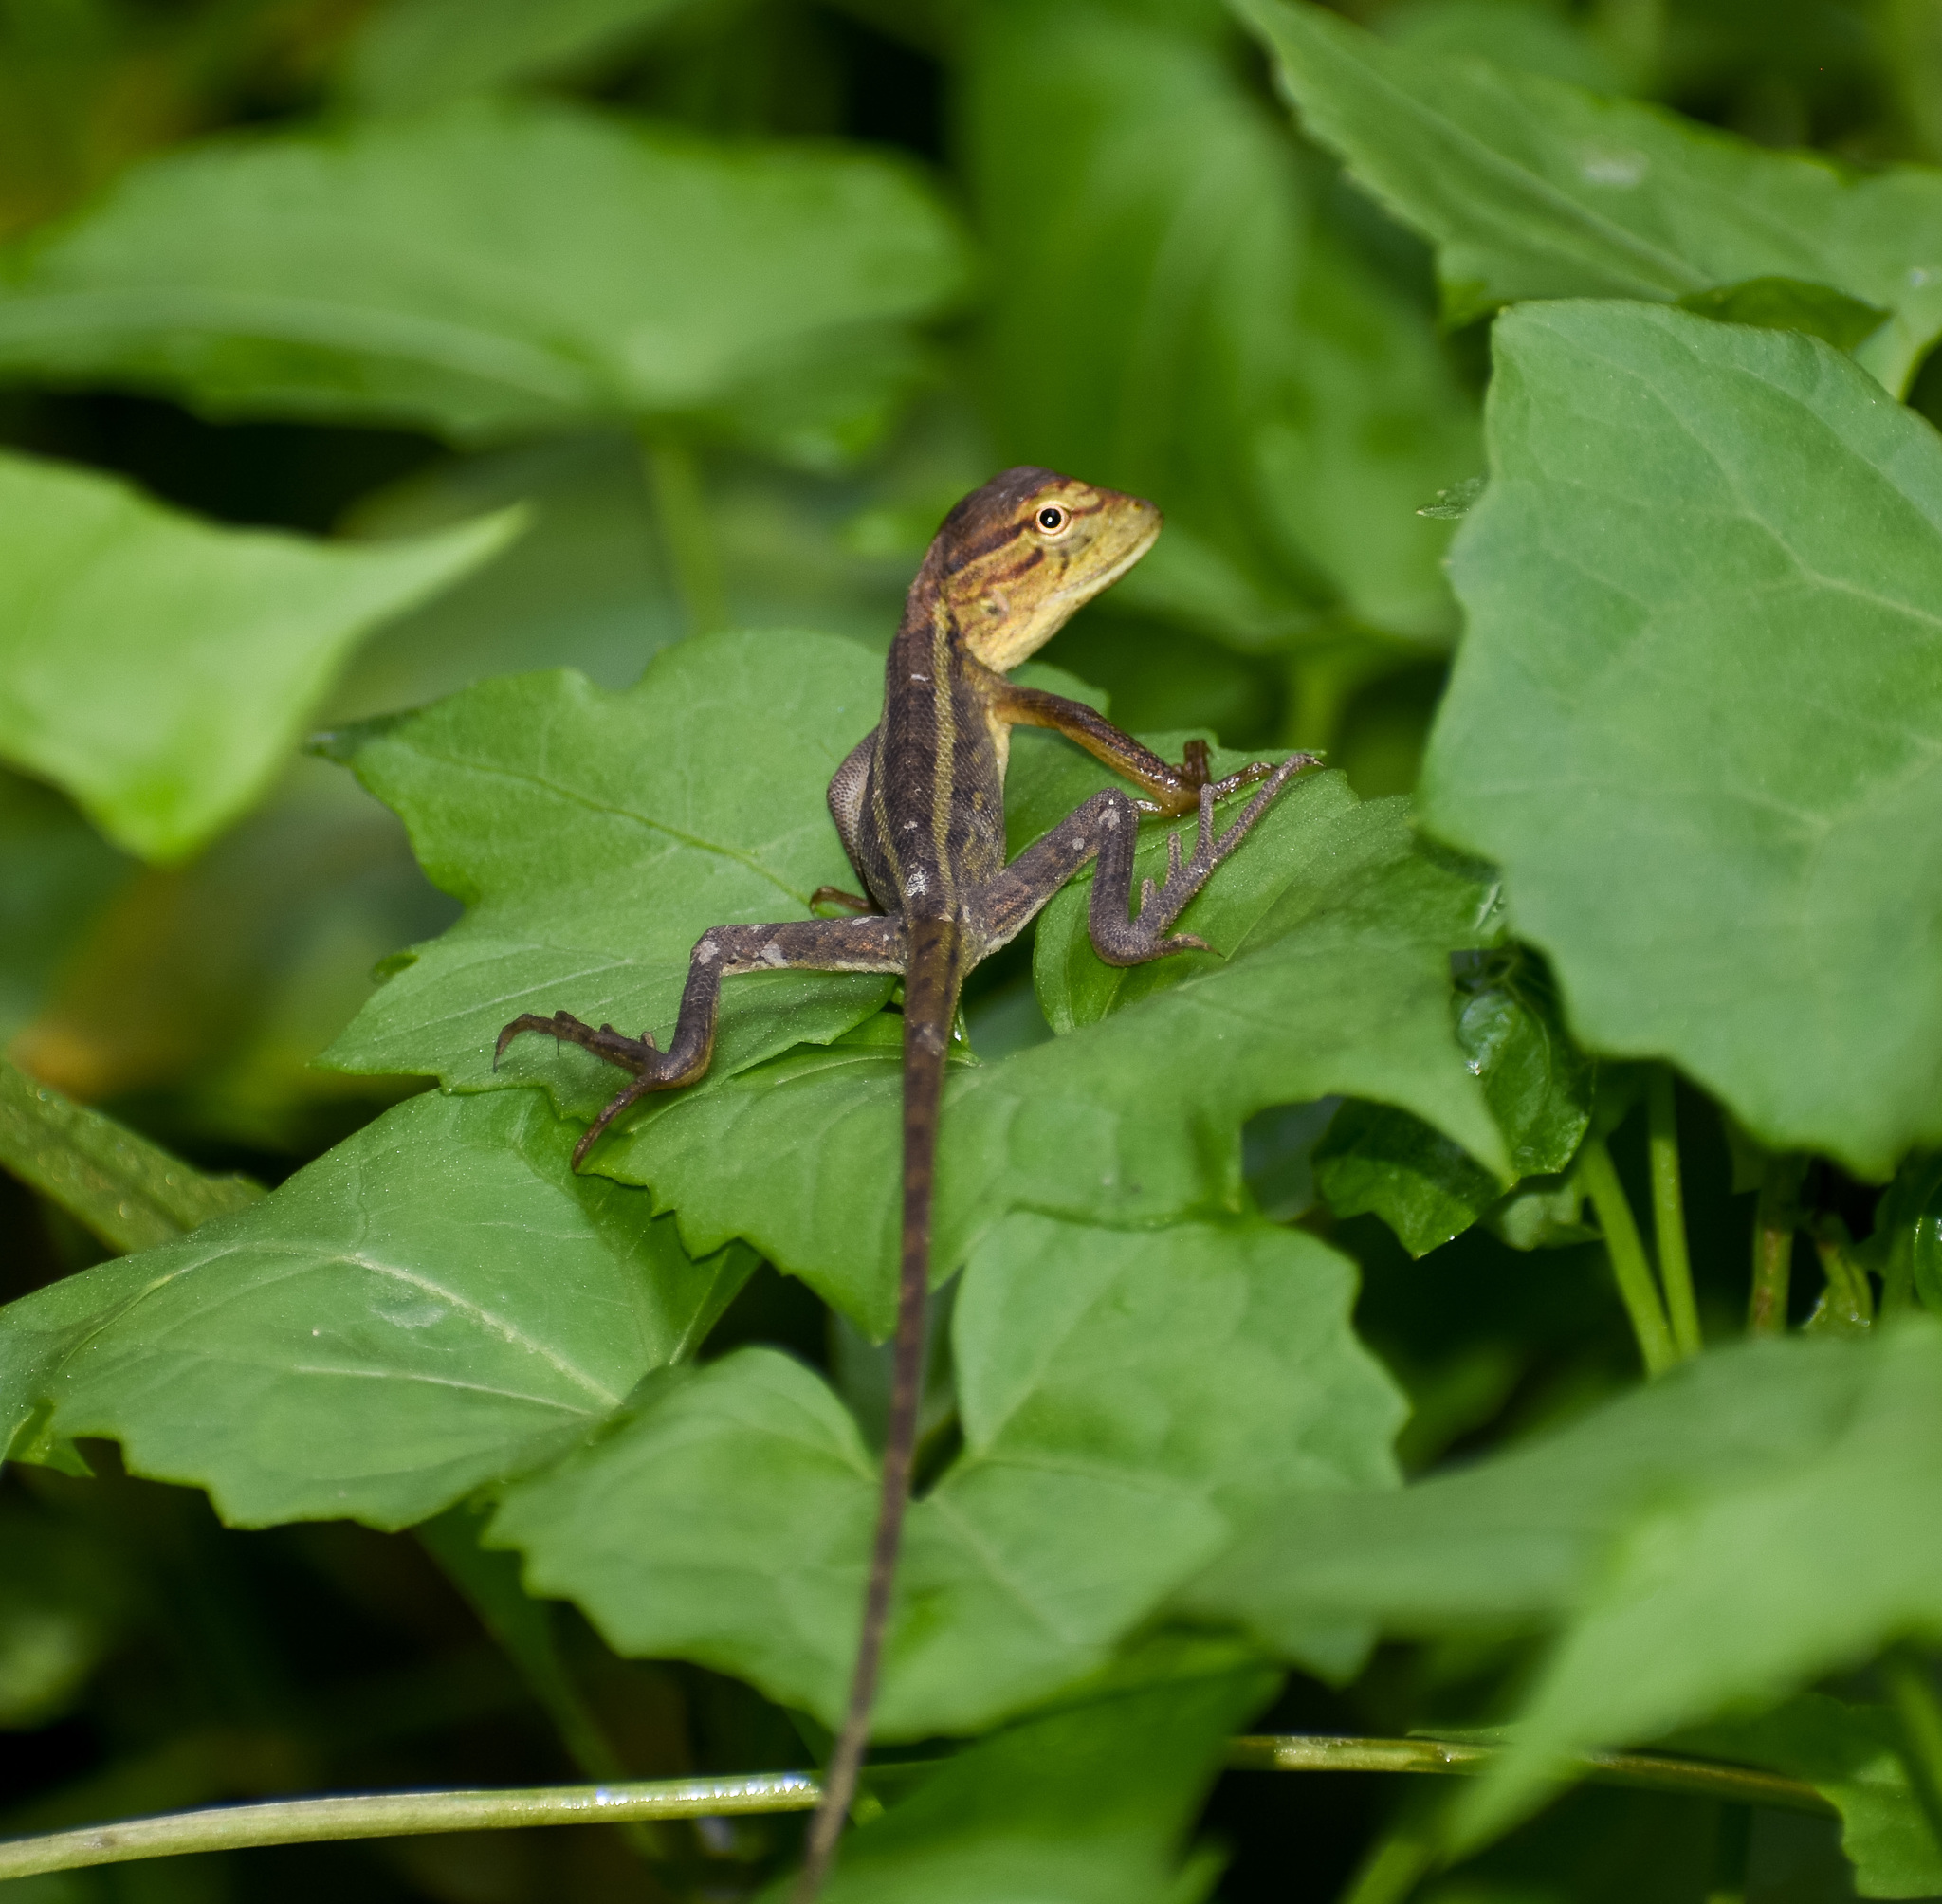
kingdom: Animalia
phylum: Chordata
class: Squamata
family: Agamidae
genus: Calotes
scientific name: Calotes versicolor
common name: Oriental garden lizard
